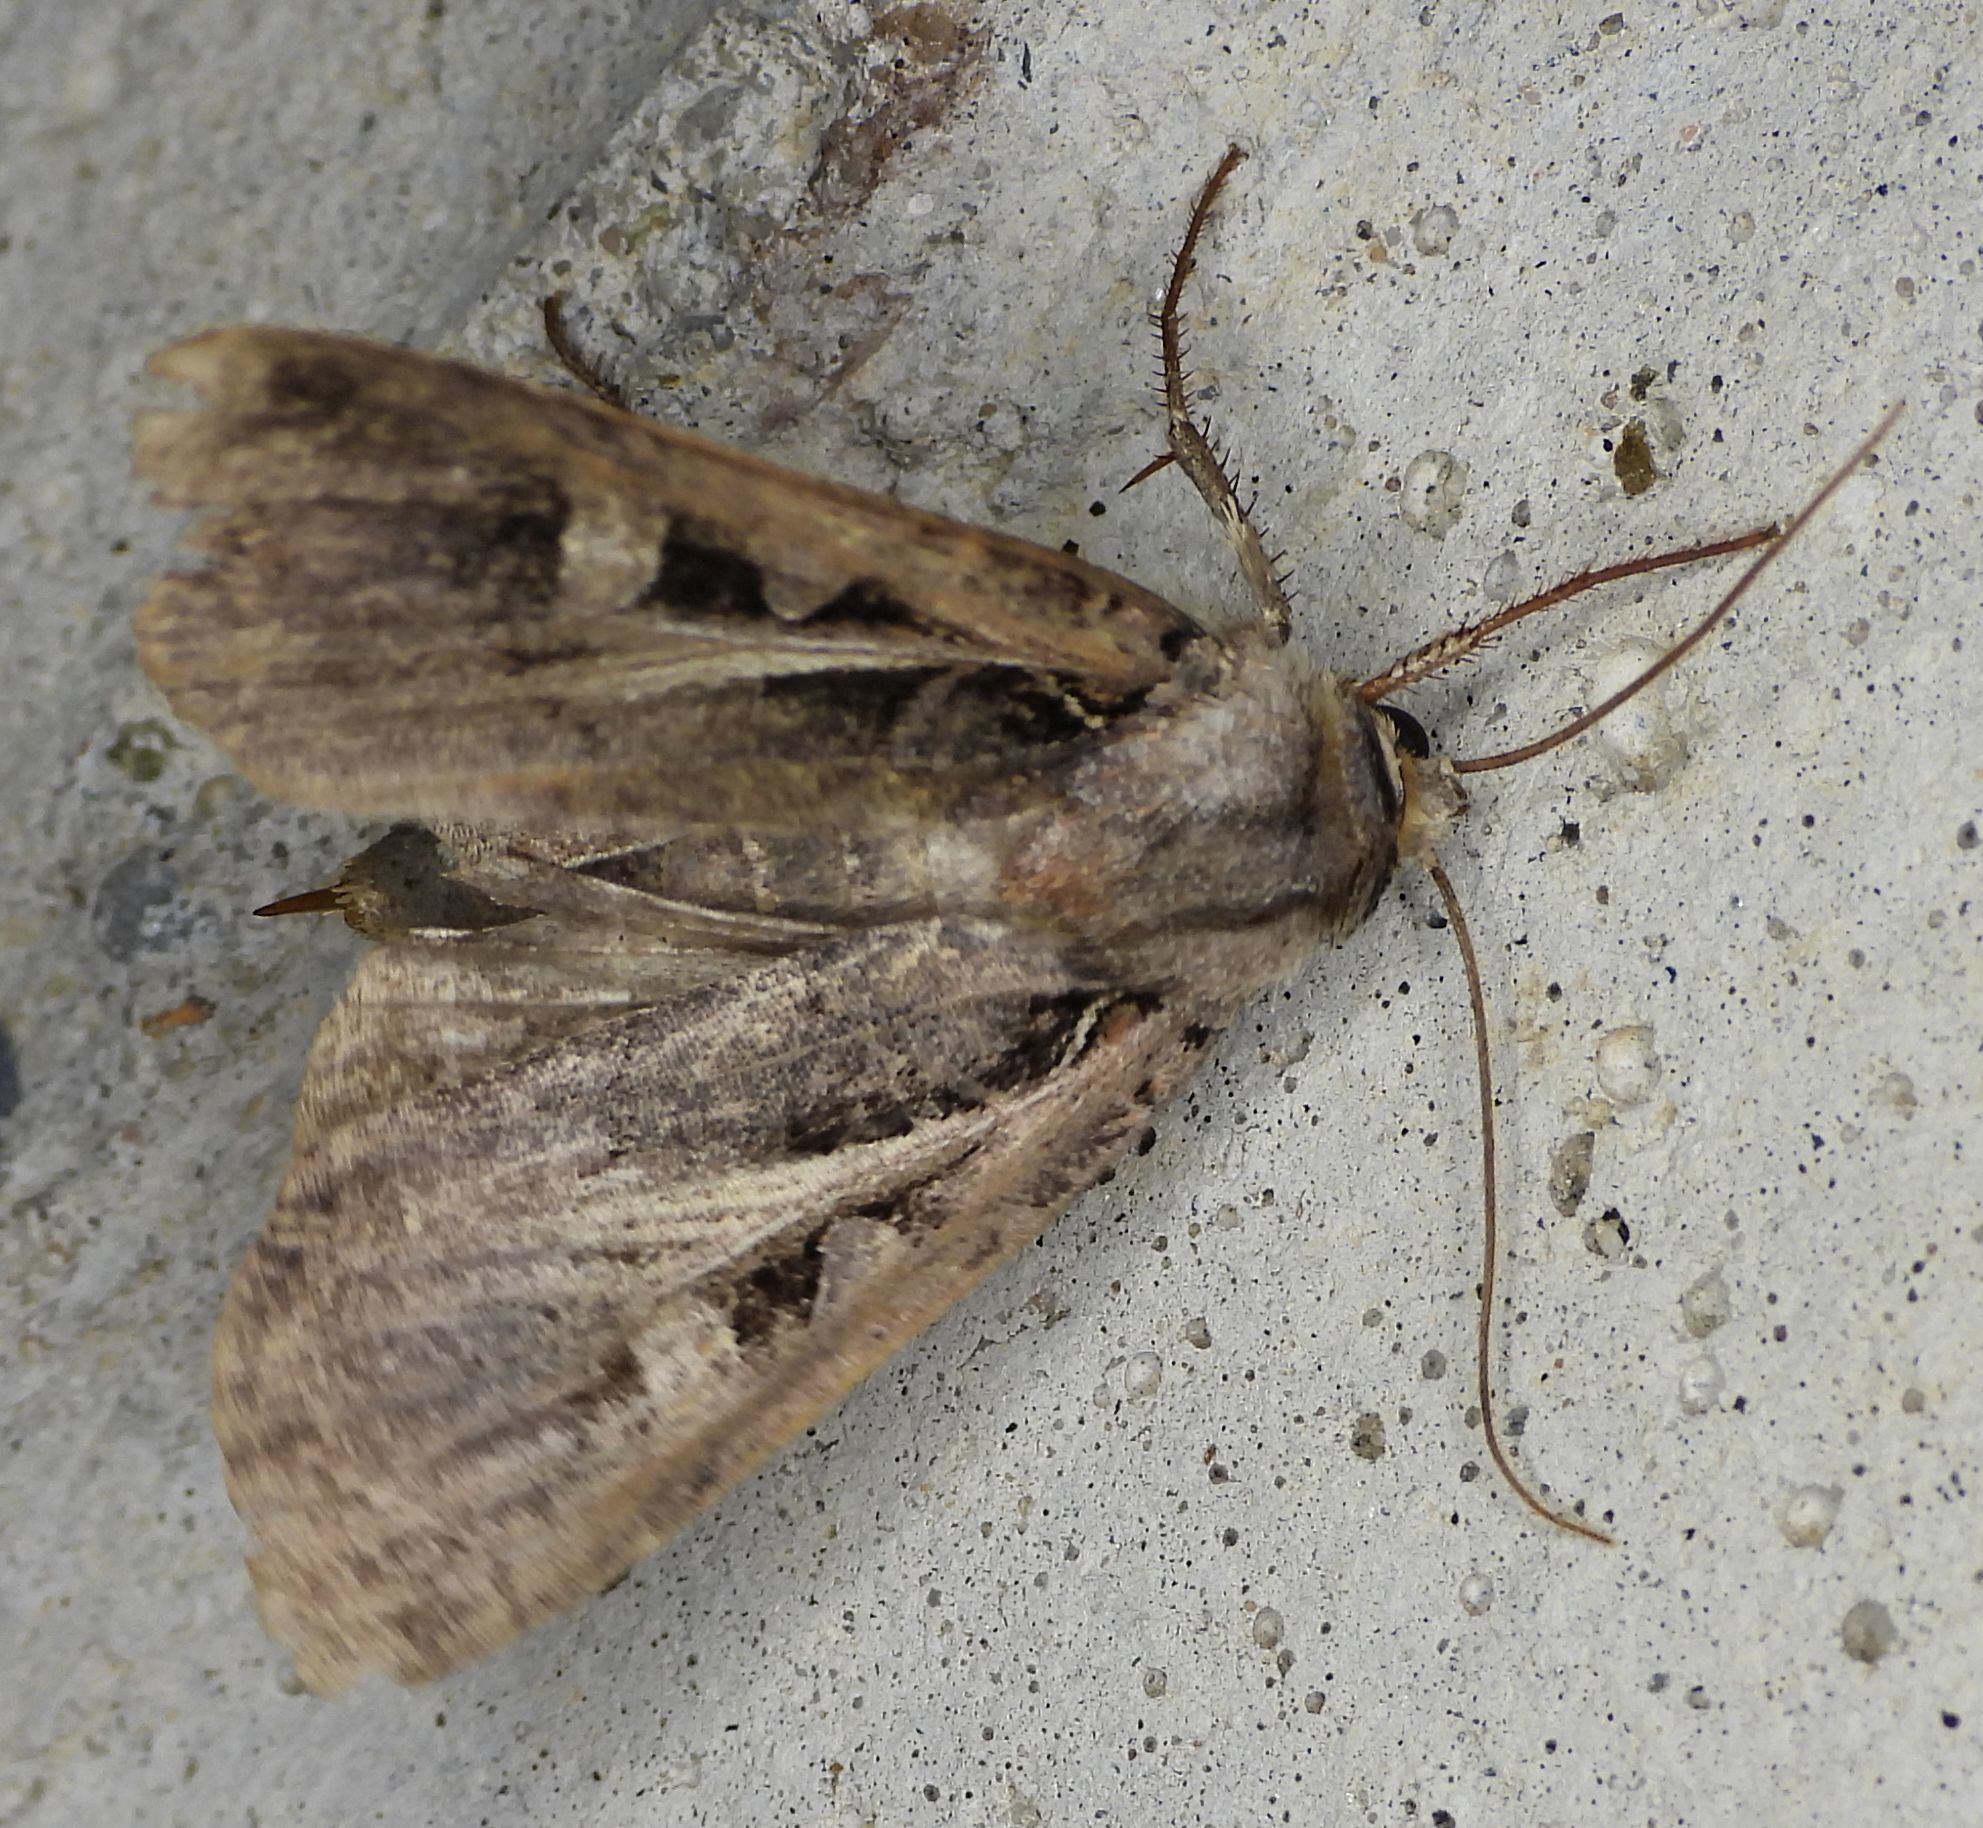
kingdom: Animalia
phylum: Arthropoda
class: Insecta
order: Lepidoptera
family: Noctuidae
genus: Feltia
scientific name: Feltia herilis
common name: Master's dart
